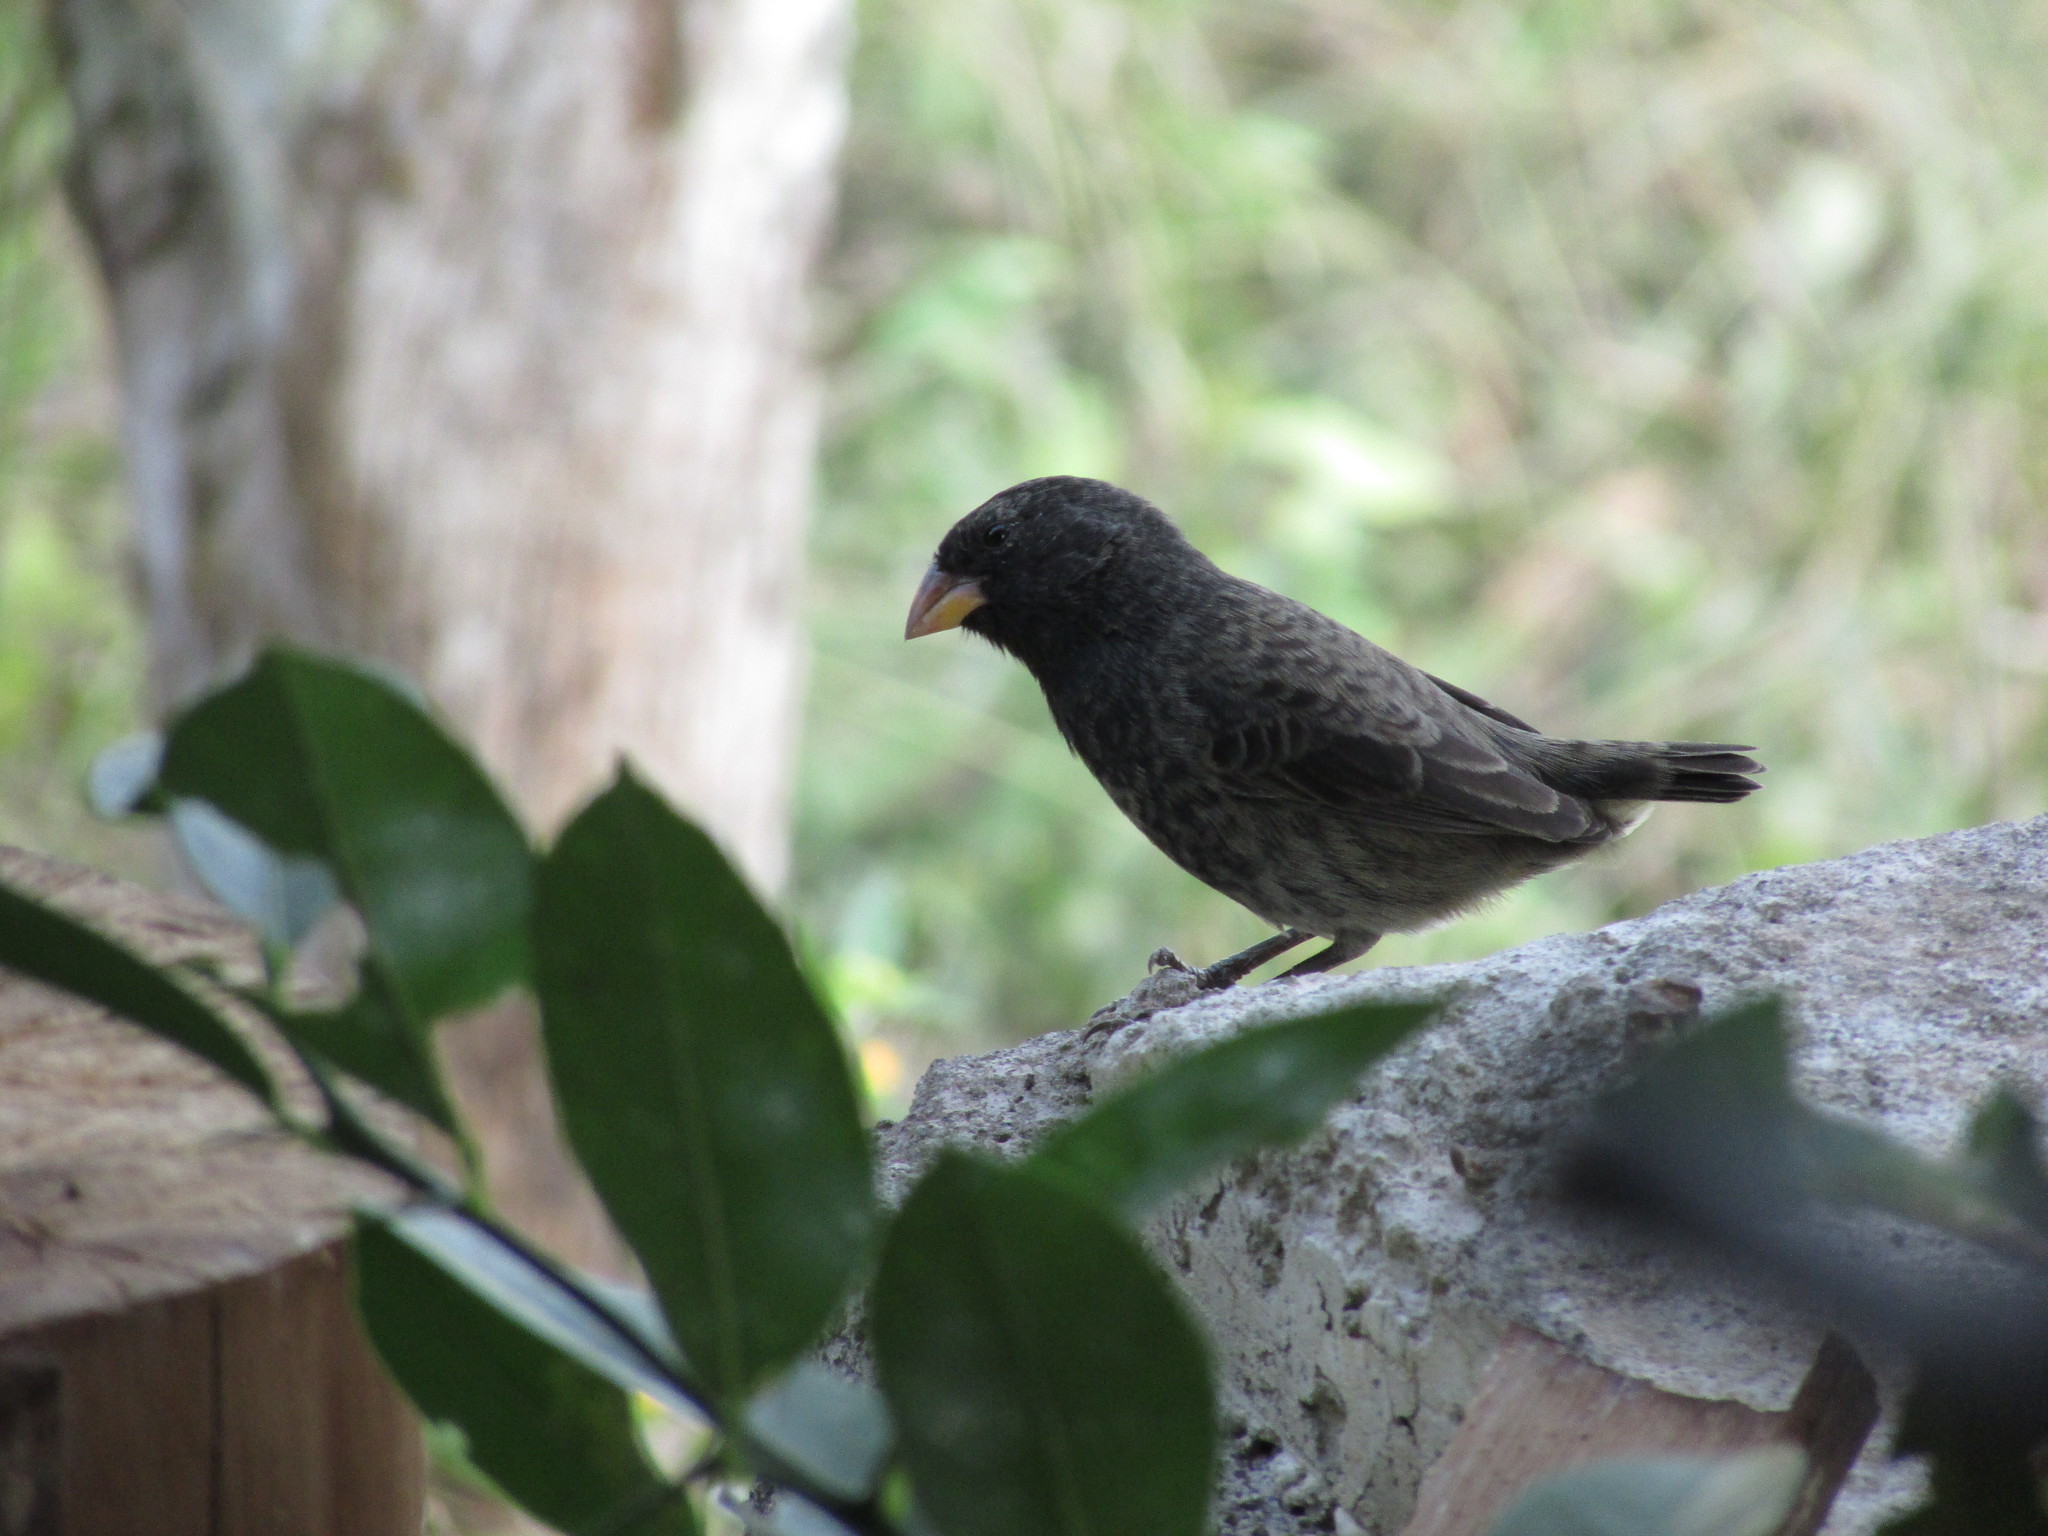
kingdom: Animalia
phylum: Chordata
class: Aves
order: Passeriformes
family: Thraupidae
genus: Geospiza
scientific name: Geospiza fuliginosa
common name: Small ground finch
